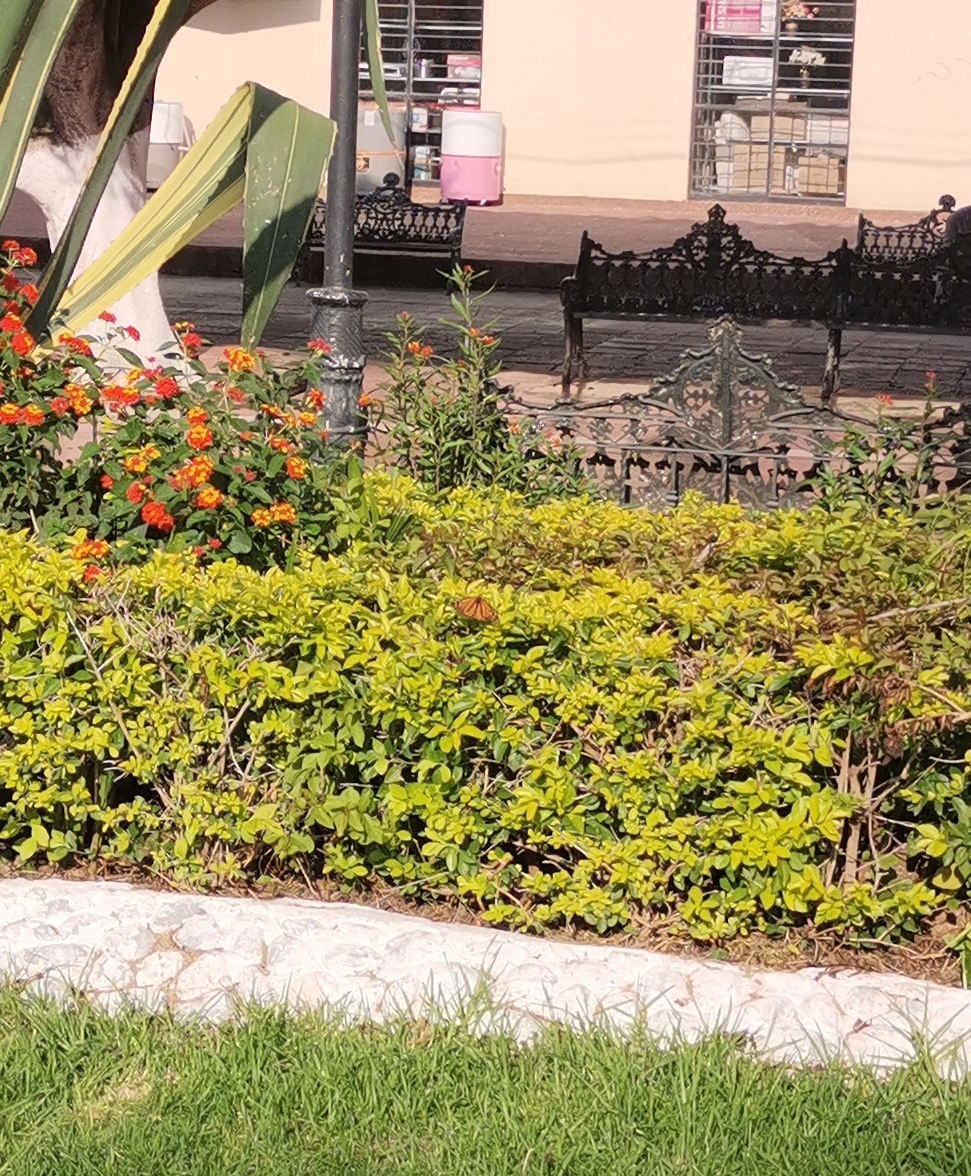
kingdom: Animalia
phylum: Arthropoda
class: Insecta
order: Lepidoptera
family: Nymphalidae
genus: Danaus
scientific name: Danaus plexippus
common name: Monarch
